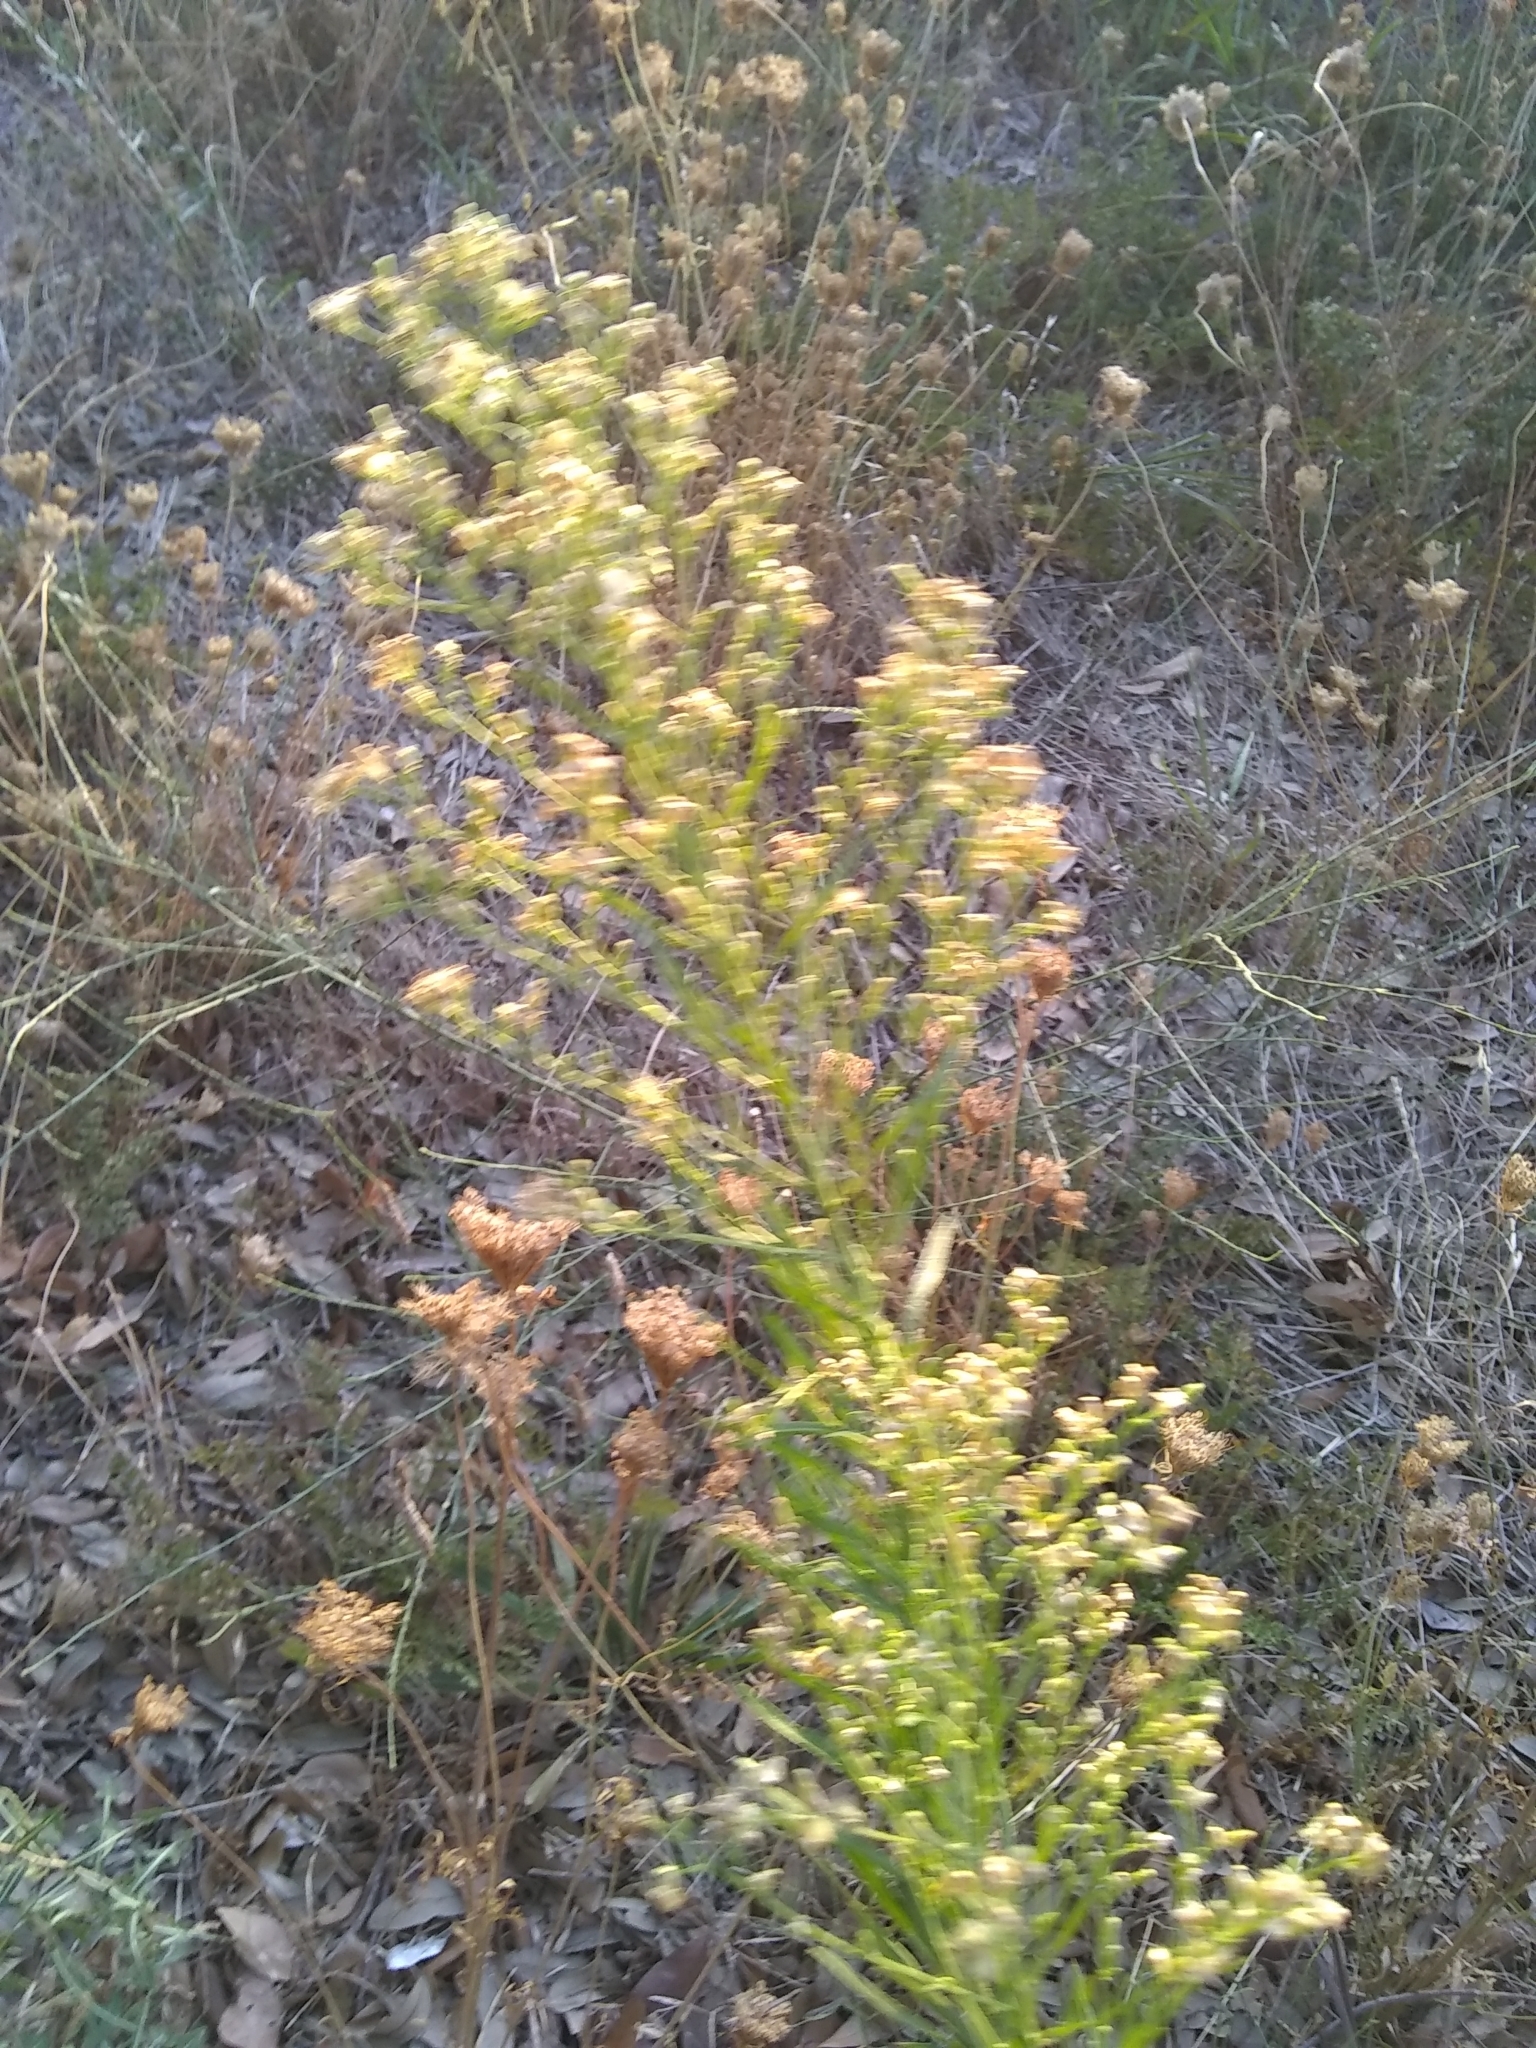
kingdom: Plantae
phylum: Tracheophyta
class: Magnoliopsida
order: Asterales
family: Asteraceae
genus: Erigeron
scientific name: Erigeron canadensis
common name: Canadian fleabane
